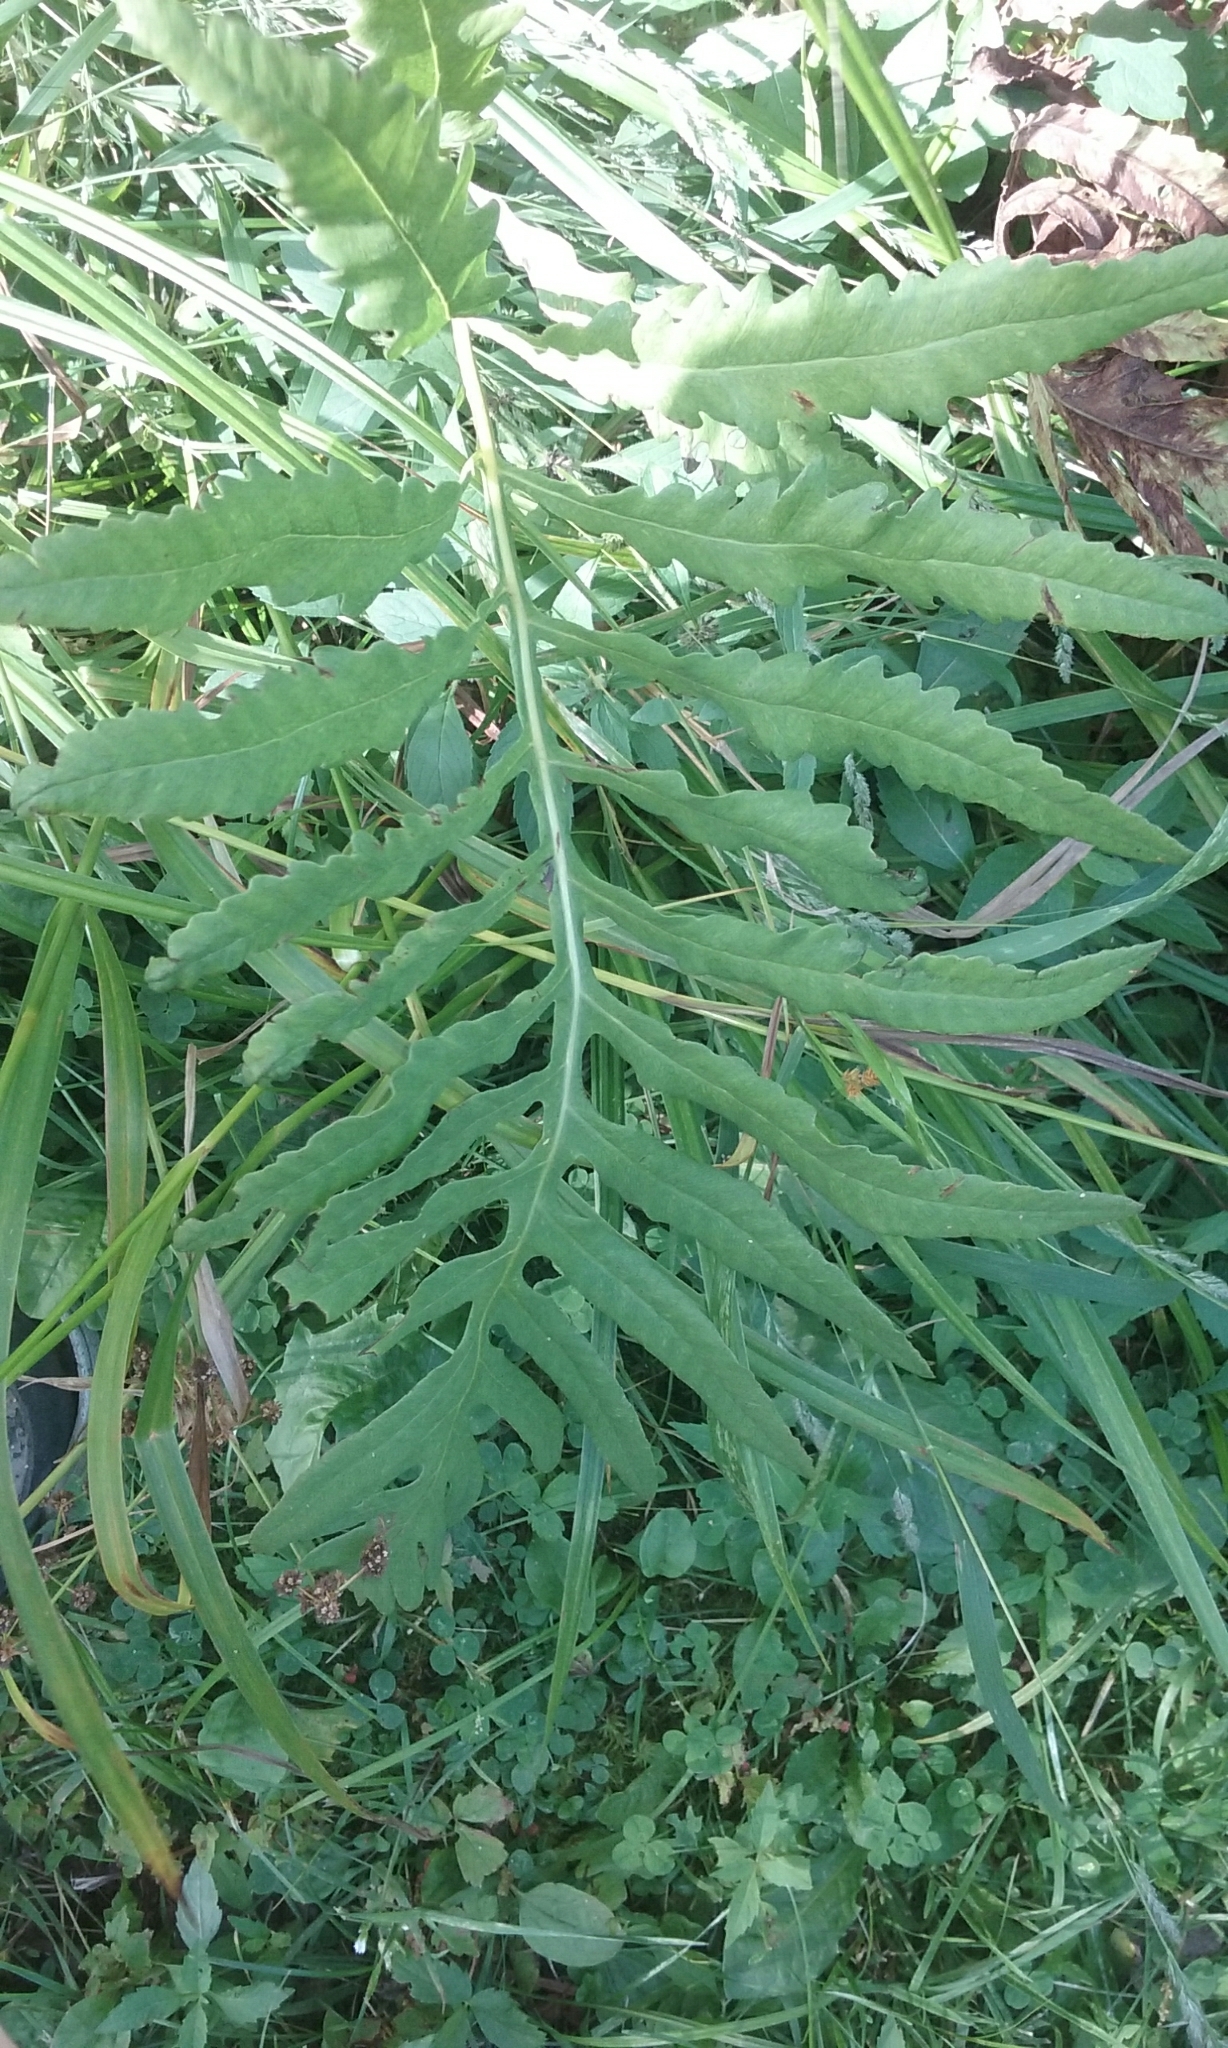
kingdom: Plantae
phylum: Tracheophyta
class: Polypodiopsida
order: Polypodiales
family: Onocleaceae
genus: Onoclea
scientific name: Onoclea sensibilis
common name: Sensitive fern
